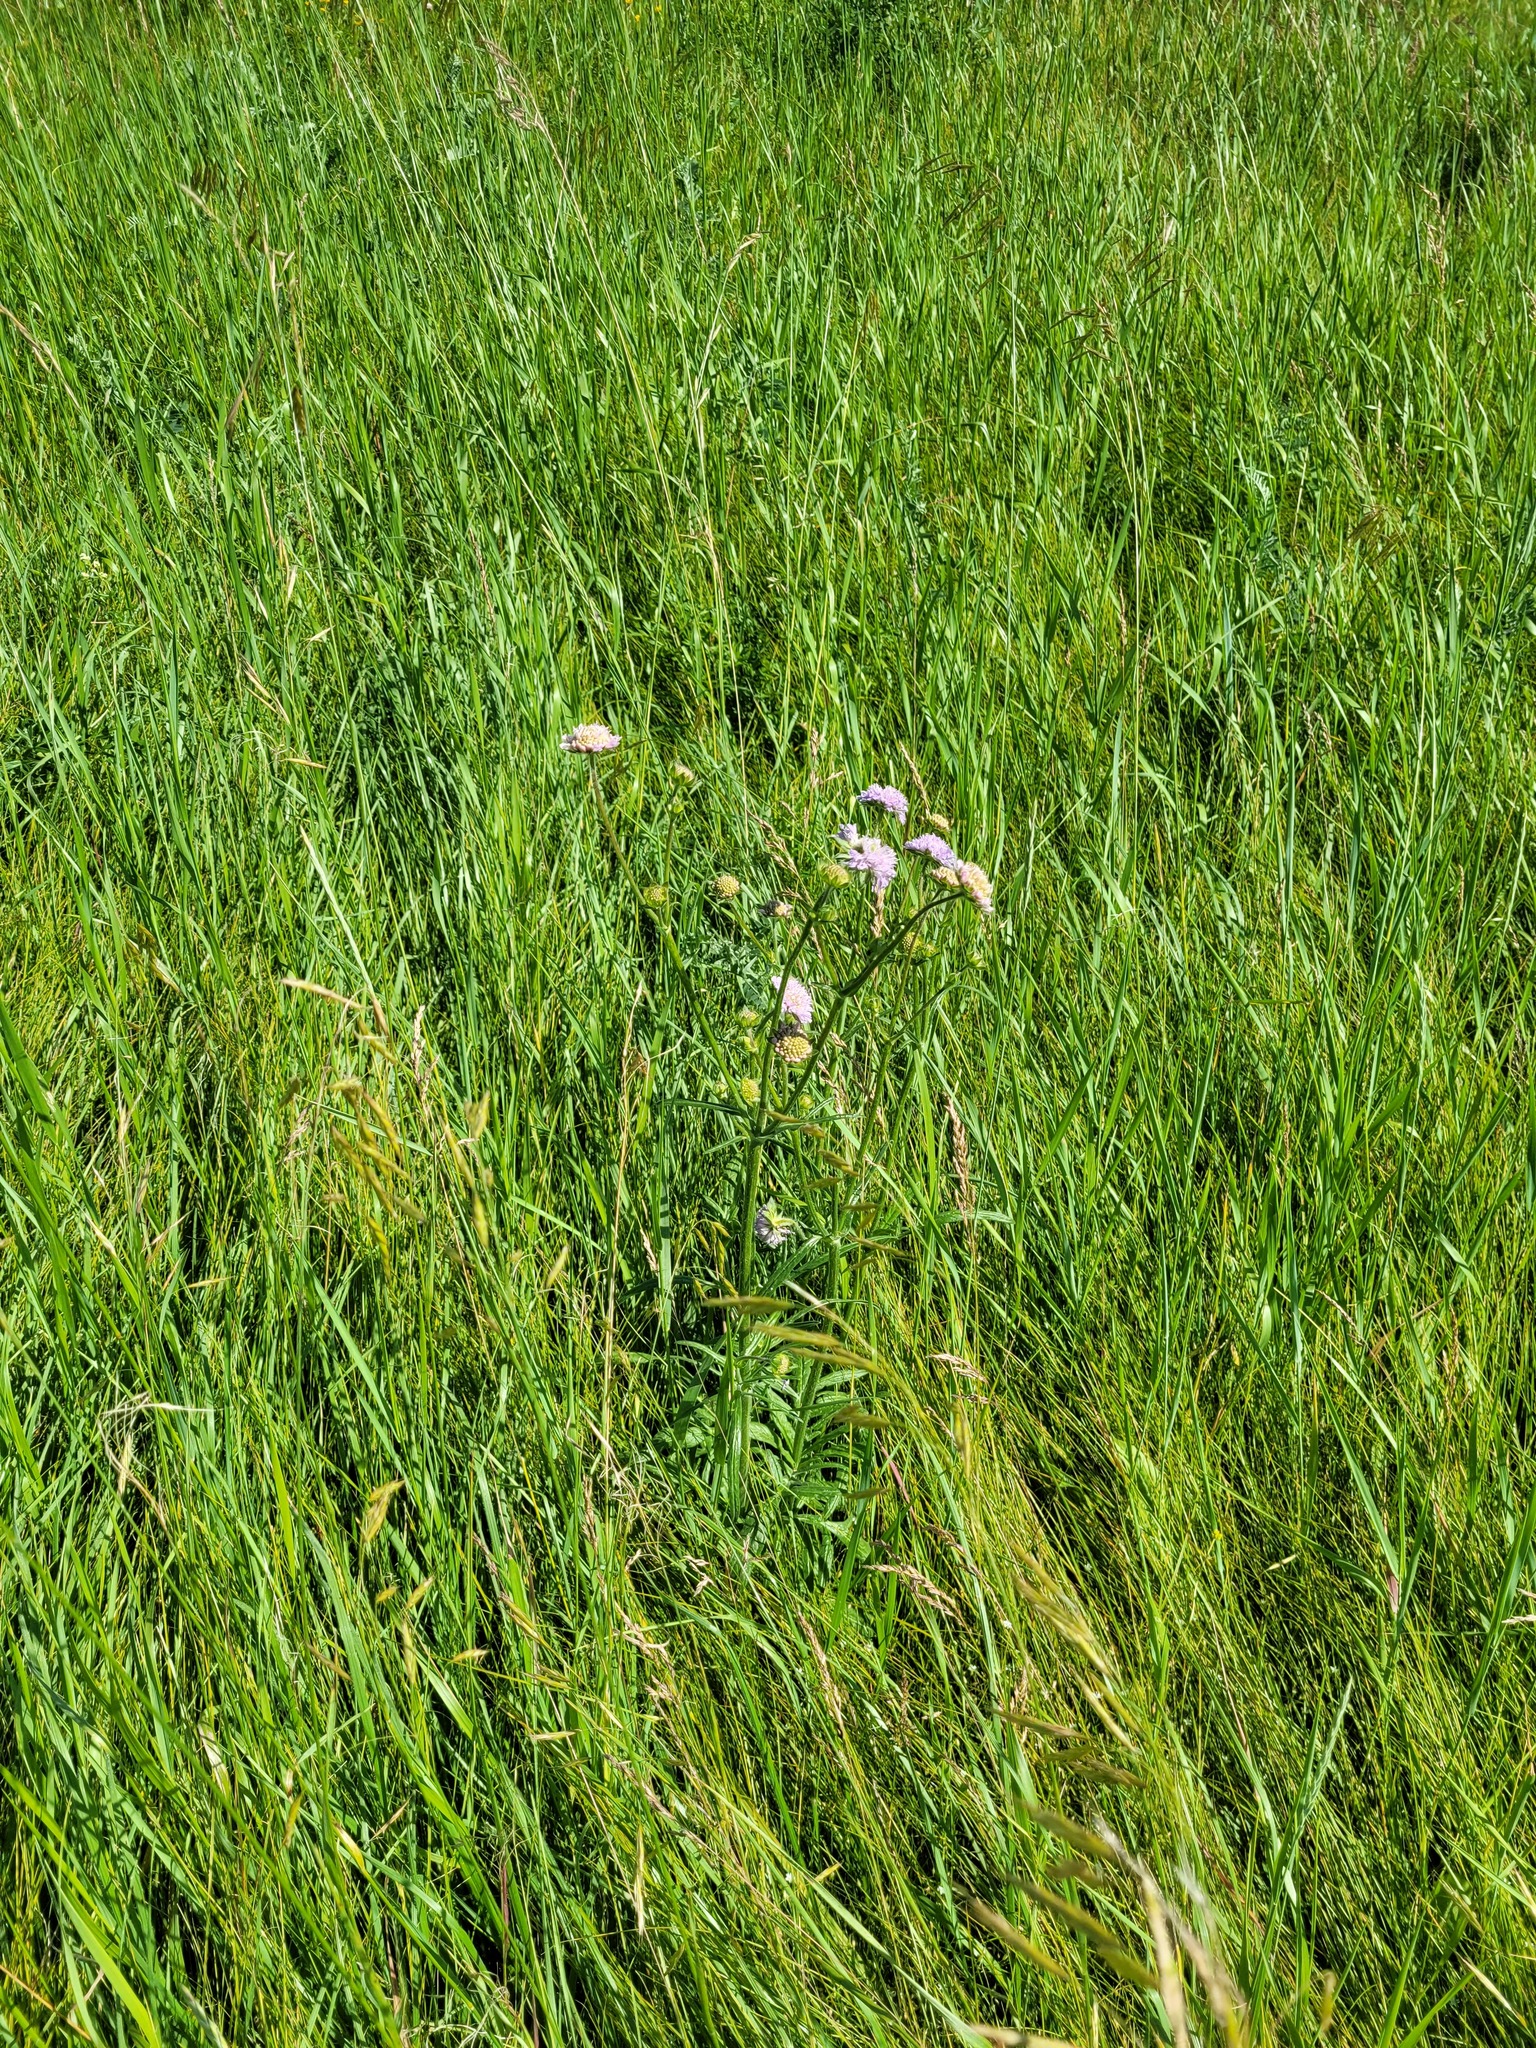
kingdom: Plantae
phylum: Tracheophyta
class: Magnoliopsida
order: Dipsacales
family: Caprifoliaceae
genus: Knautia
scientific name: Knautia arvensis
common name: Field scabiosa
